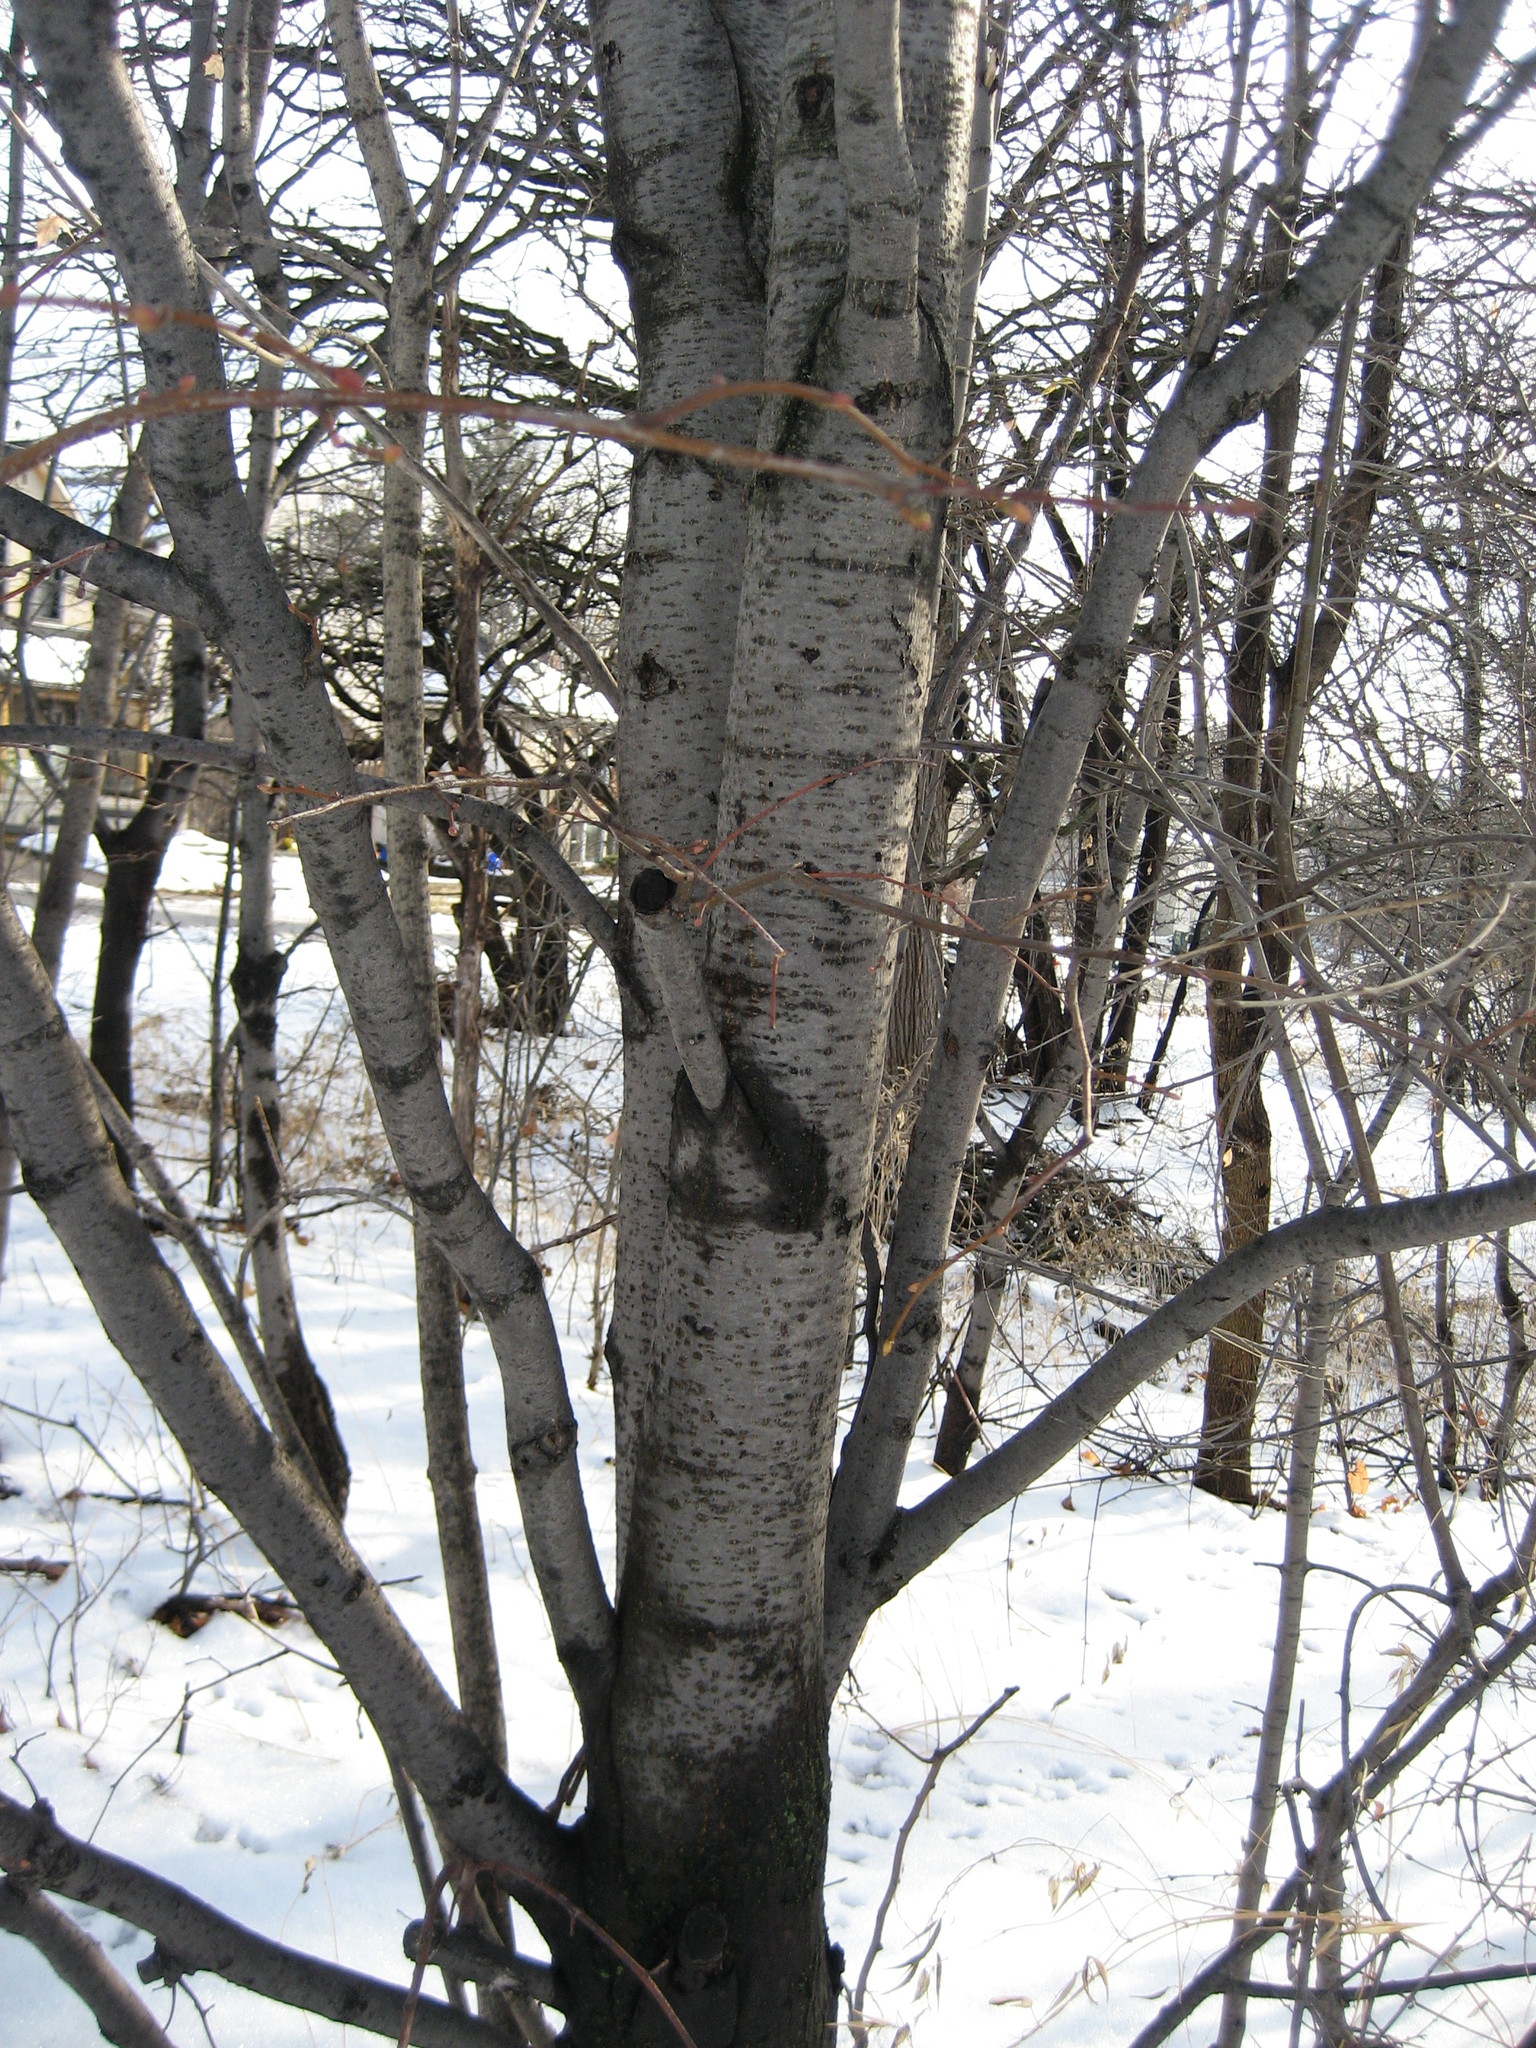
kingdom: Plantae
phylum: Tracheophyta
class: Magnoliopsida
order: Malvales
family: Malvaceae
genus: Tilia
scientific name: Tilia cordata
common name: Small-leaved lime
